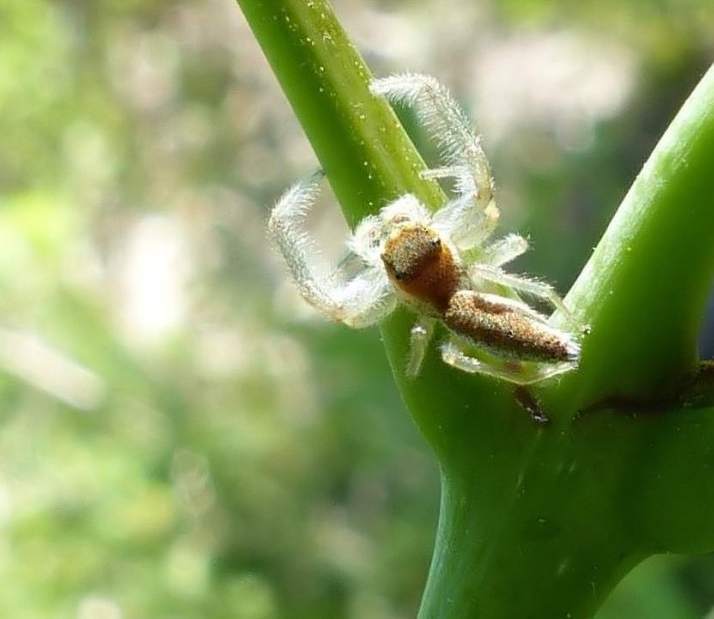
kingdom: Animalia
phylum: Arthropoda
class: Arachnida
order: Araneae
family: Salticidae
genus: Hentzia
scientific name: Hentzia mitrata
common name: White-jawed jumping spider
